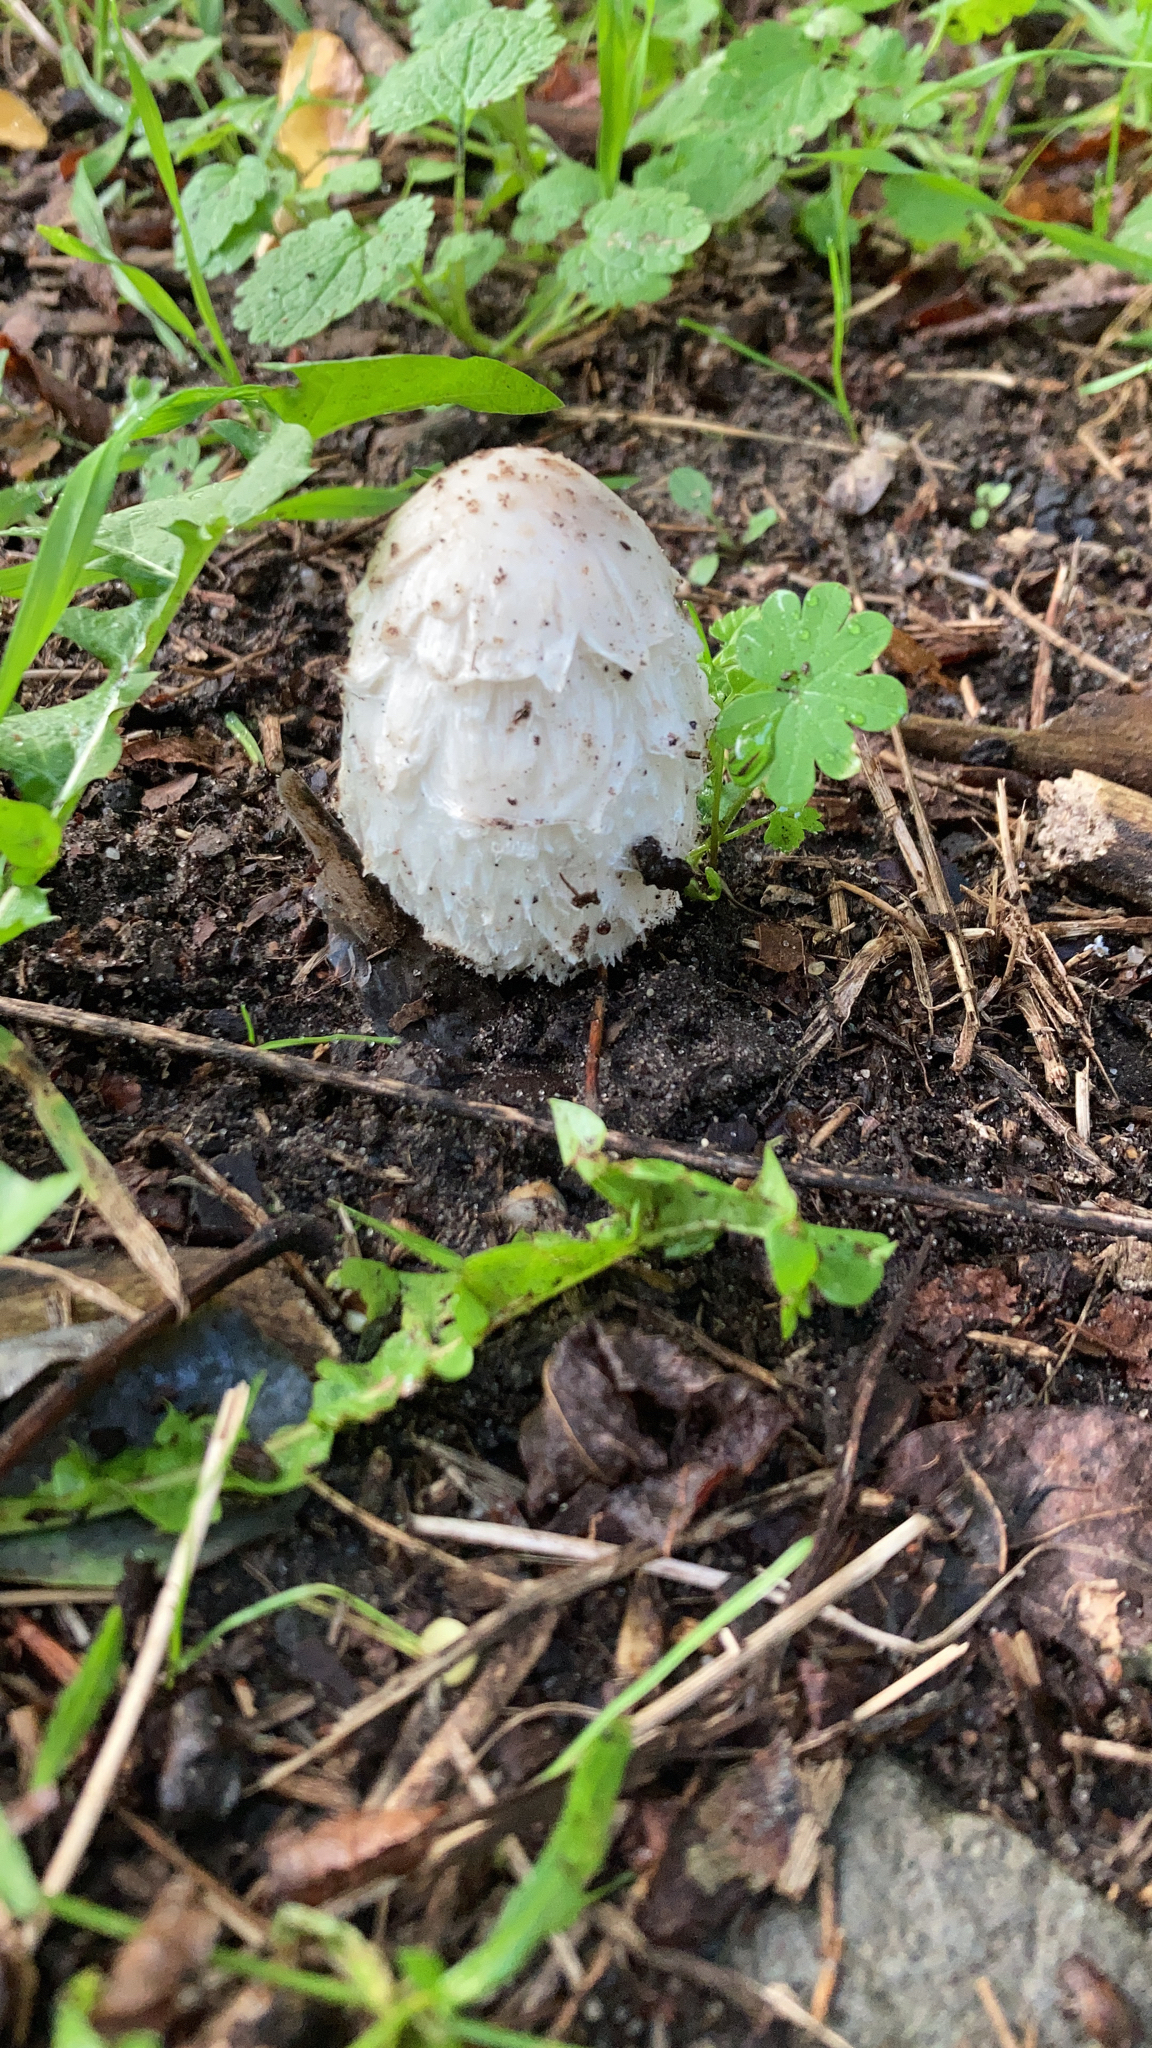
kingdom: Fungi
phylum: Basidiomycota
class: Agaricomycetes
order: Agaricales
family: Agaricaceae
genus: Coprinus
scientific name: Coprinus comatus
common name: Lawyer's wig
